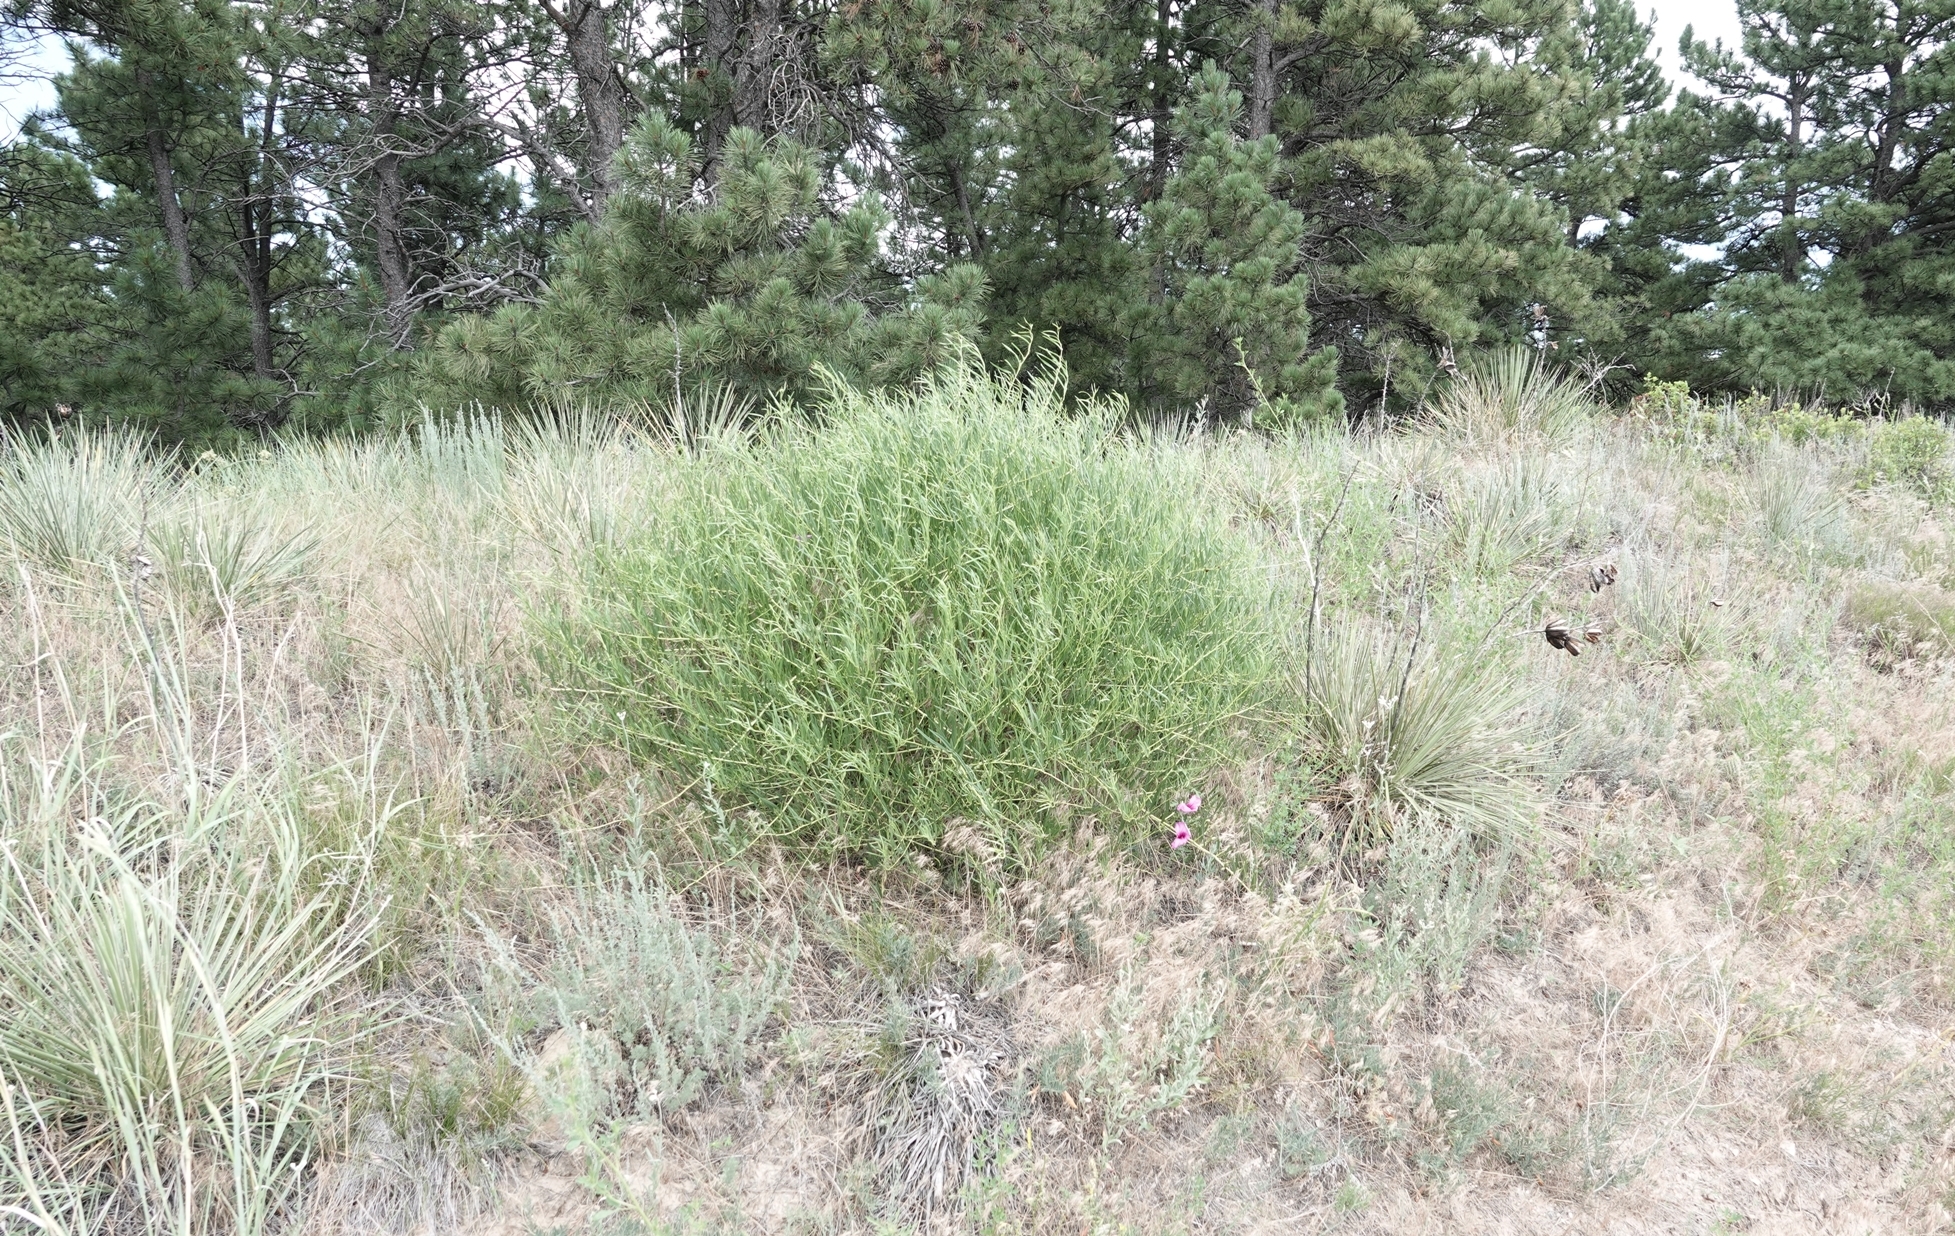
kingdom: Plantae
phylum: Tracheophyta
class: Magnoliopsida
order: Solanales
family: Convolvulaceae
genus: Ipomoea
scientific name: Ipomoea leptophylla
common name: Bush moonflower
